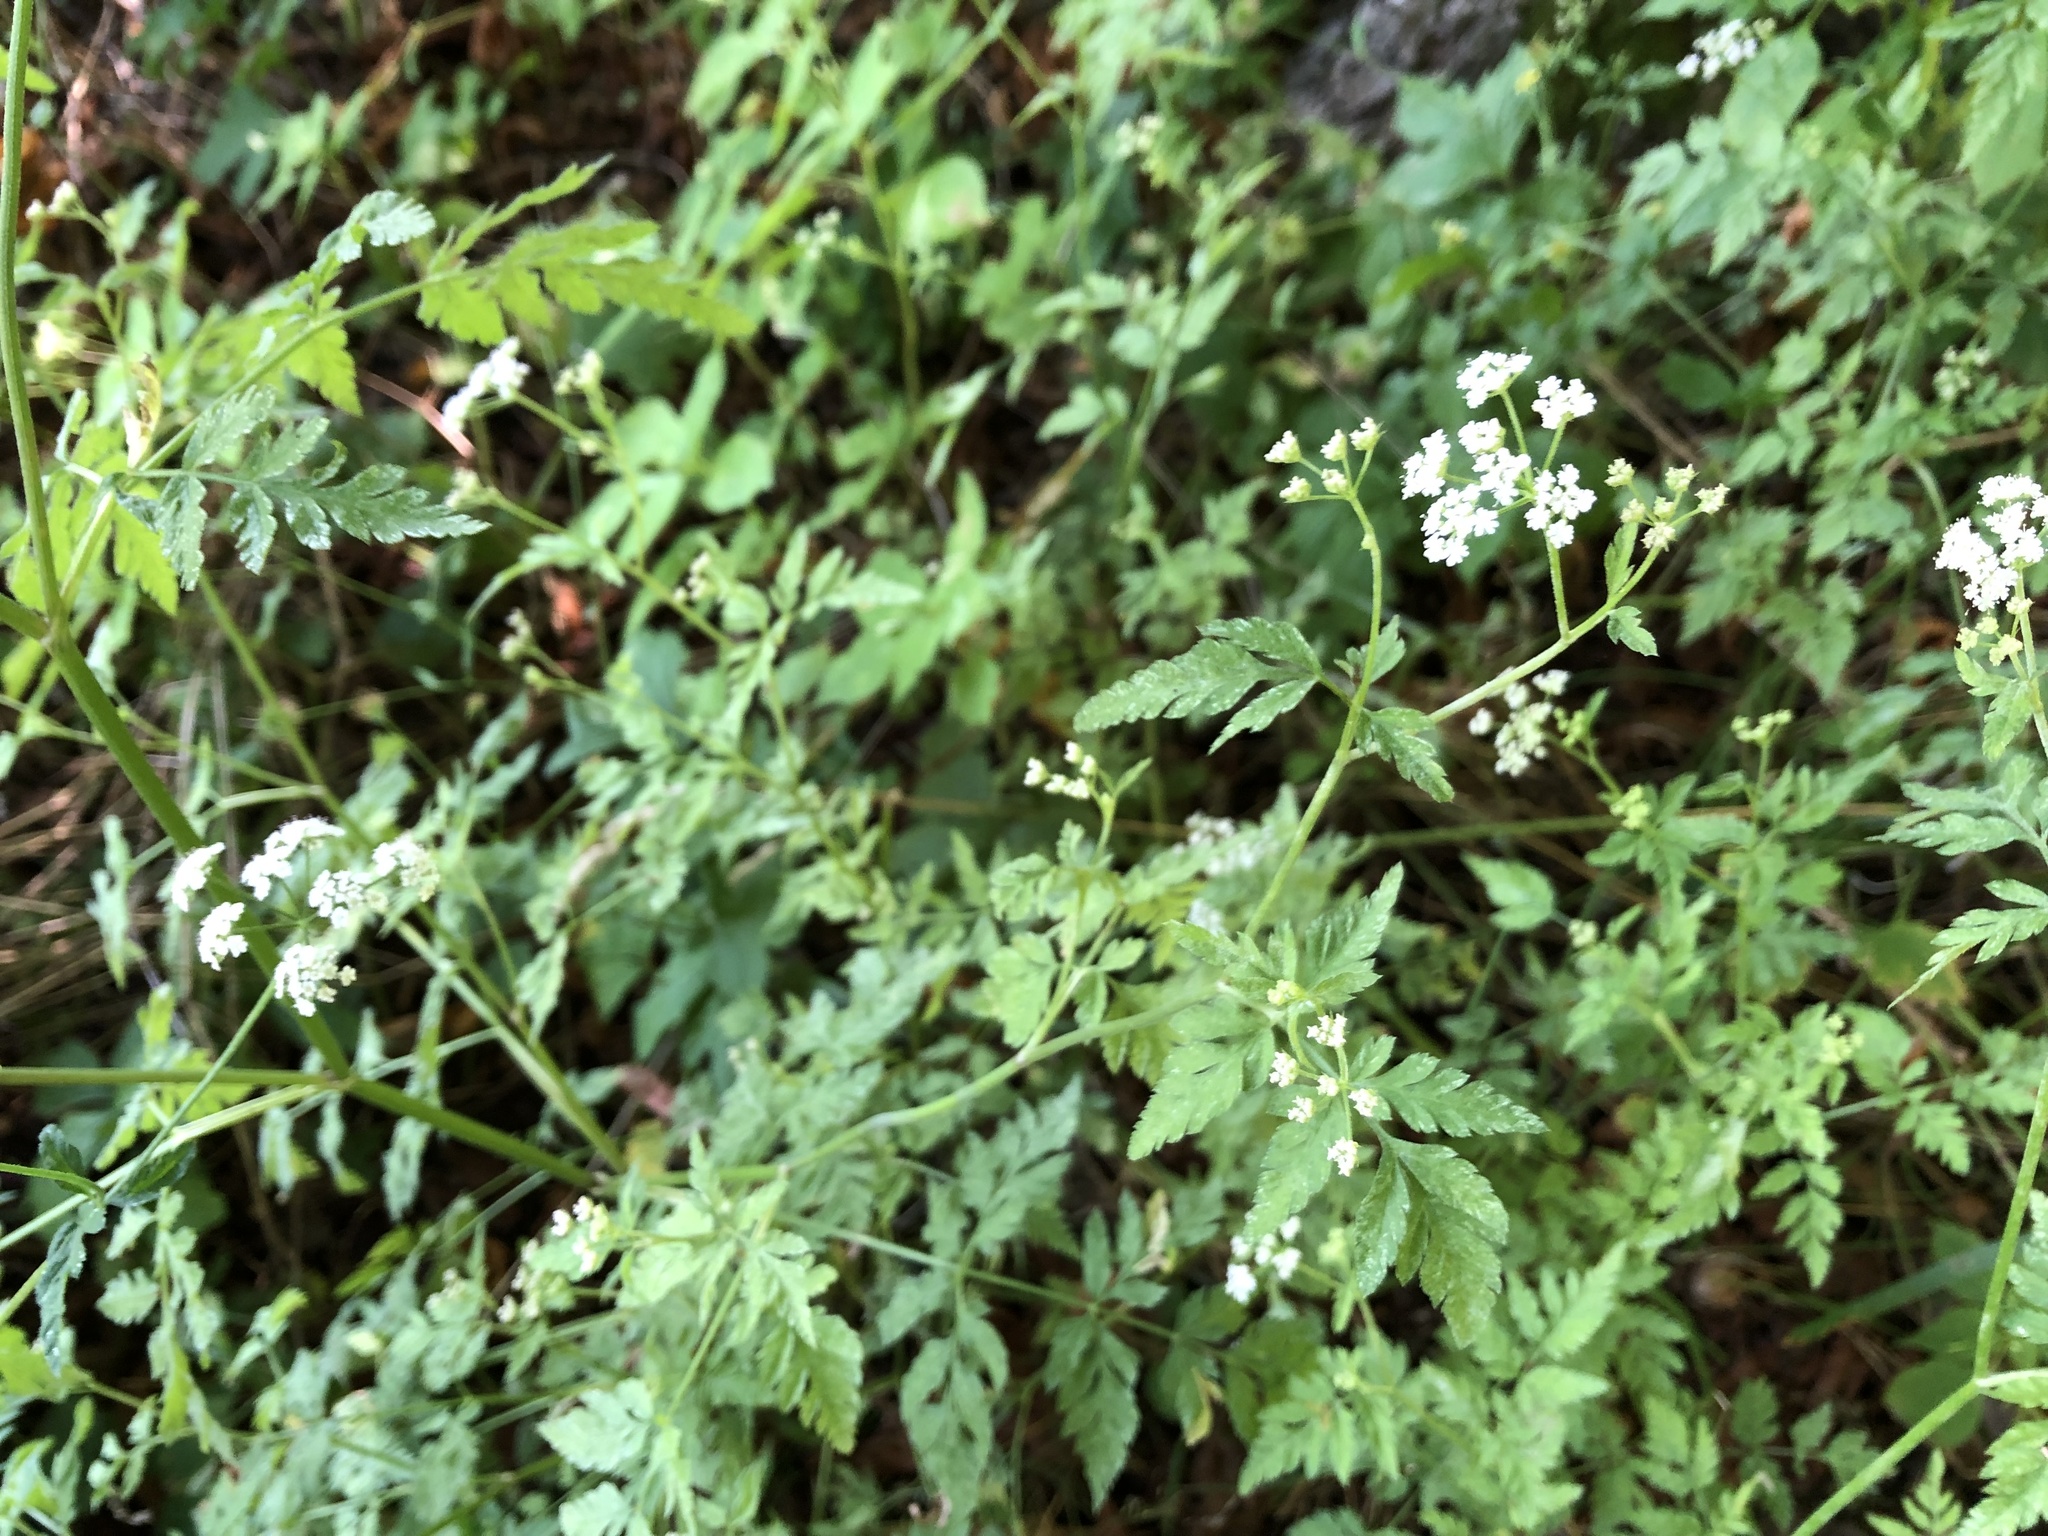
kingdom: Plantae
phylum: Tracheophyta
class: Magnoliopsida
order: Apiales
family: Apiaceae
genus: Torilis
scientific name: Torilis japonica
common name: Upright hedge-parsley
